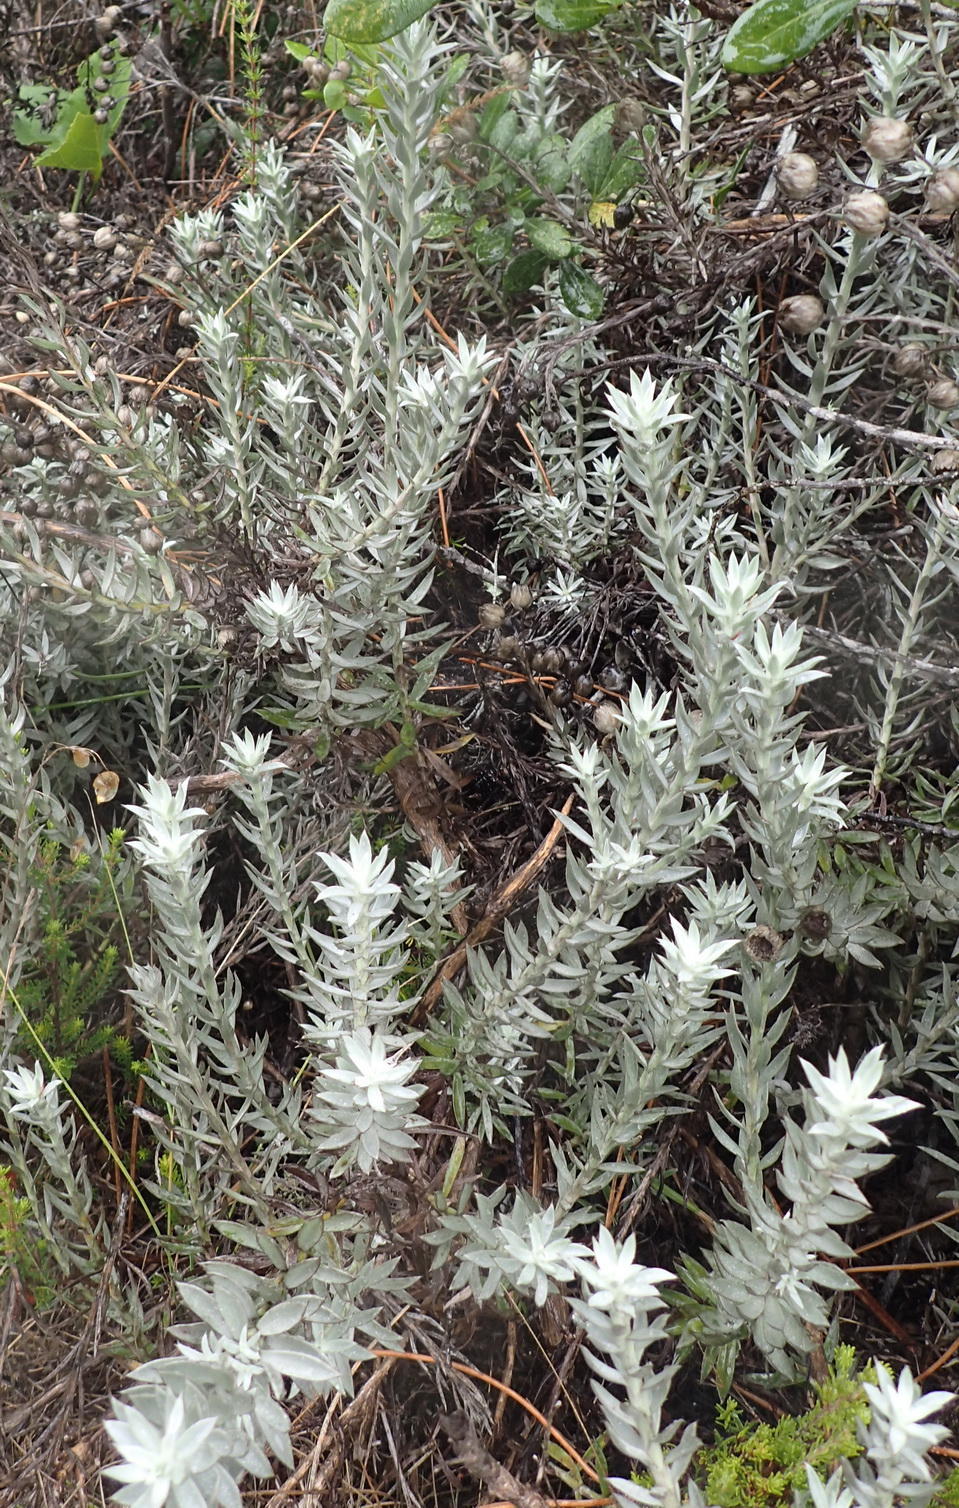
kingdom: Plantae
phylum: Tracheophyta
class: Magnoliopsida
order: Asterales
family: Asteraceae
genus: Achyranthemum
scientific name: Achyranthemum paniculatum
